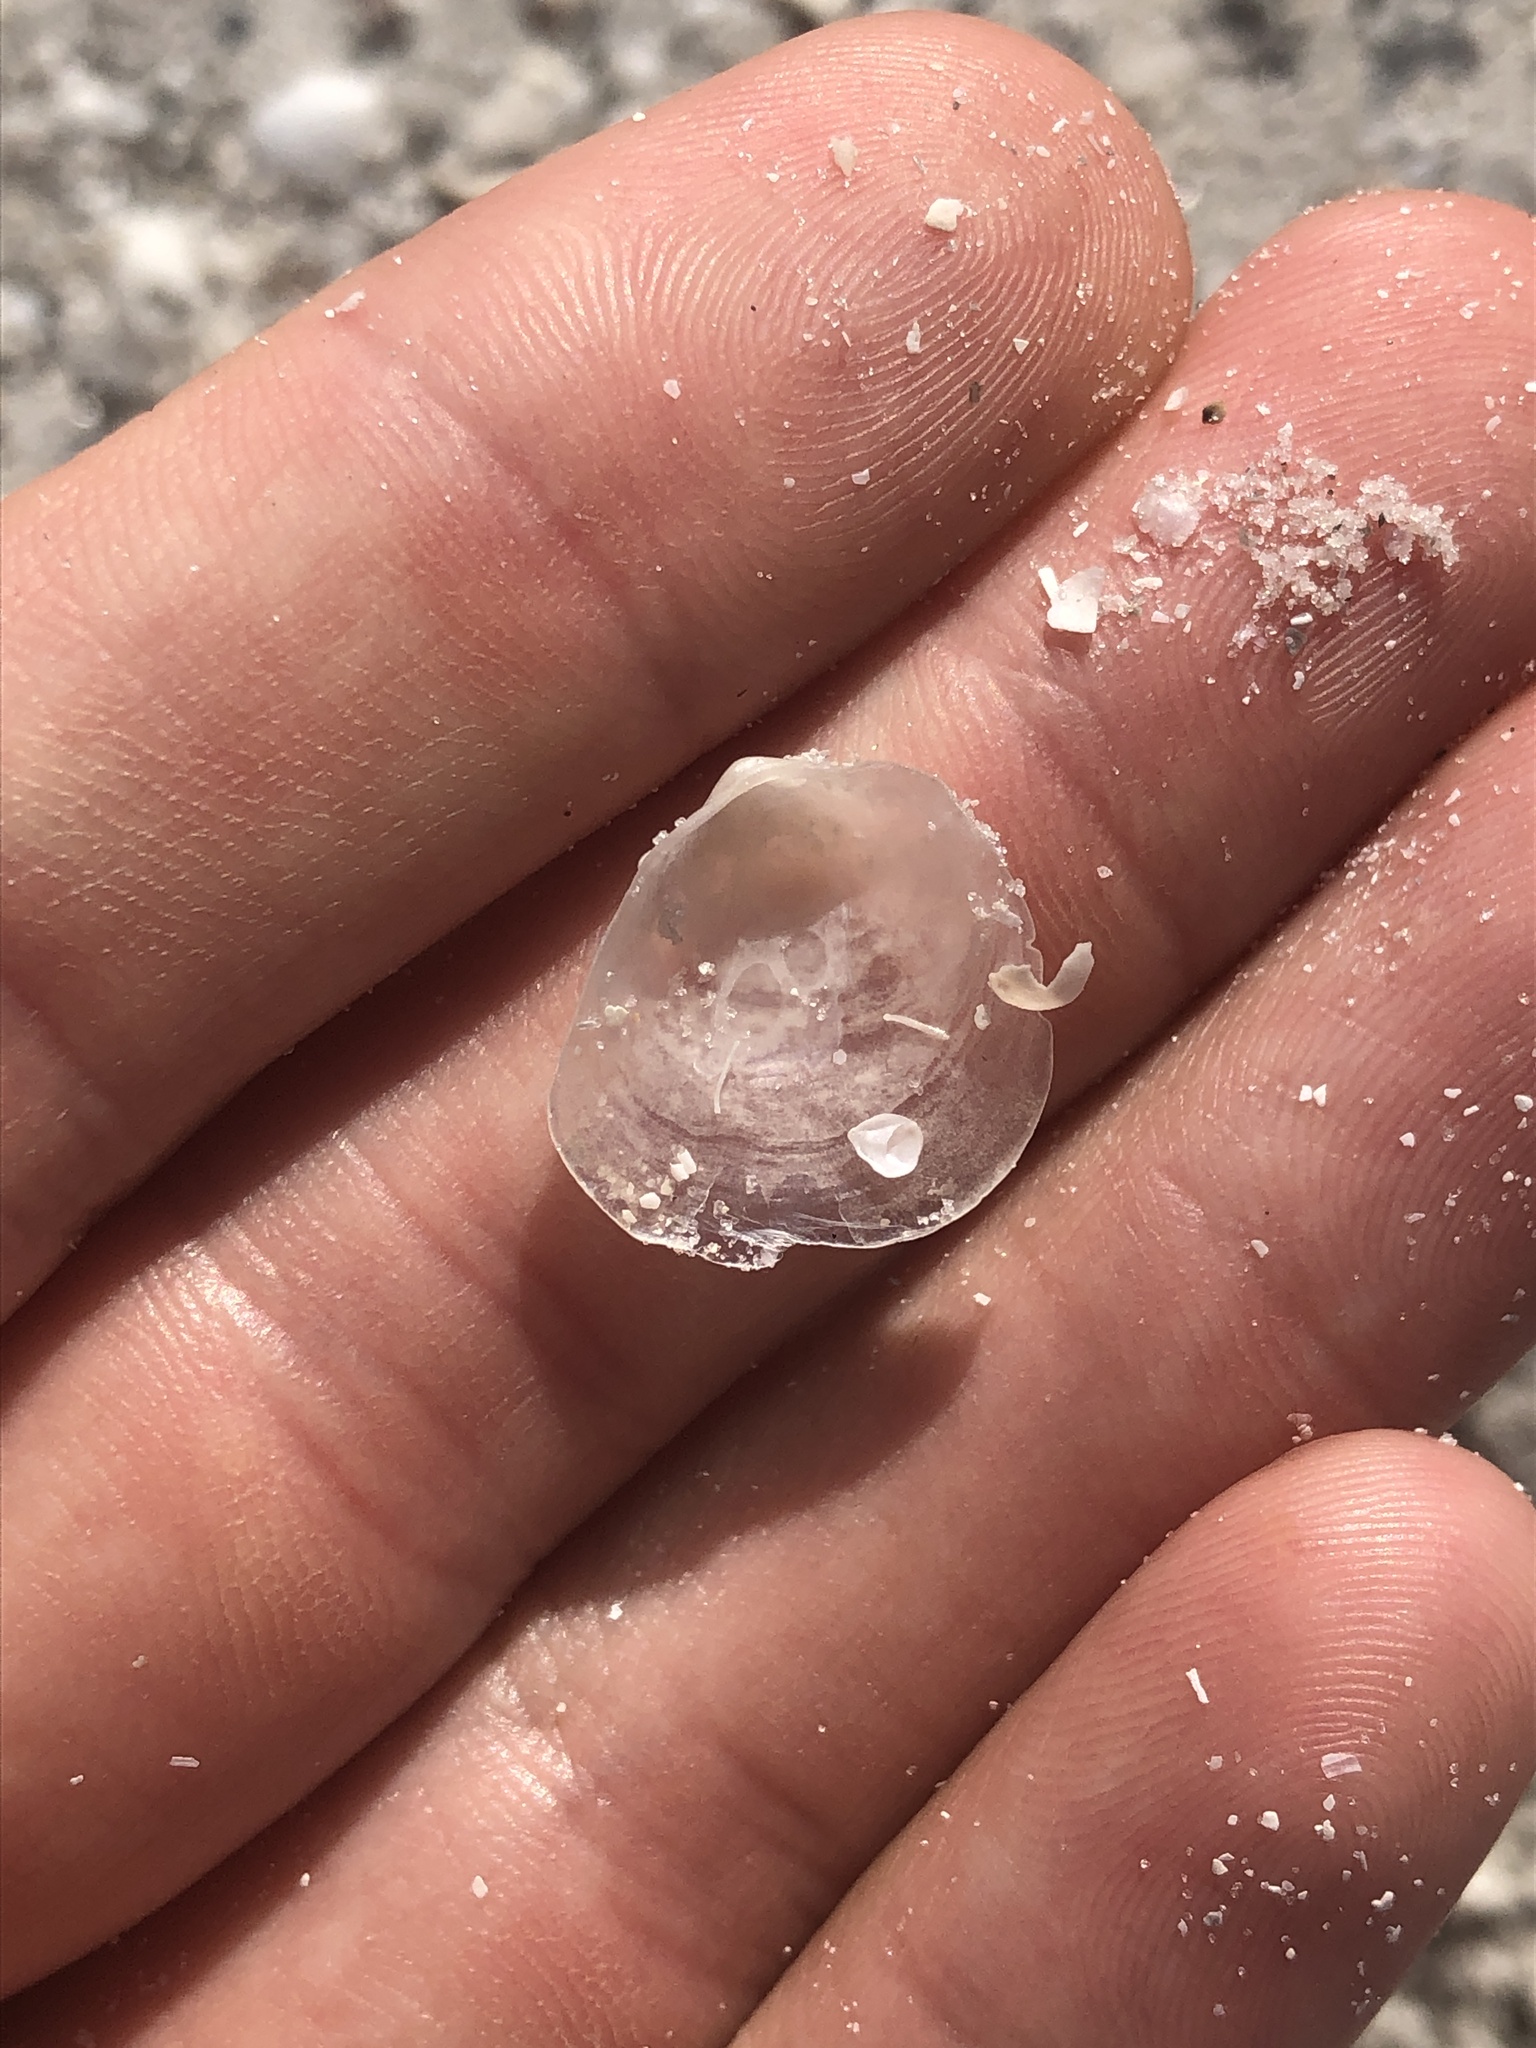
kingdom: Animalia
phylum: Mollusca
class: Bivalvia
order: Pectinida
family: Anomiidae
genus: Anomia
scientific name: Anomia simplex
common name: Common jingle shell
